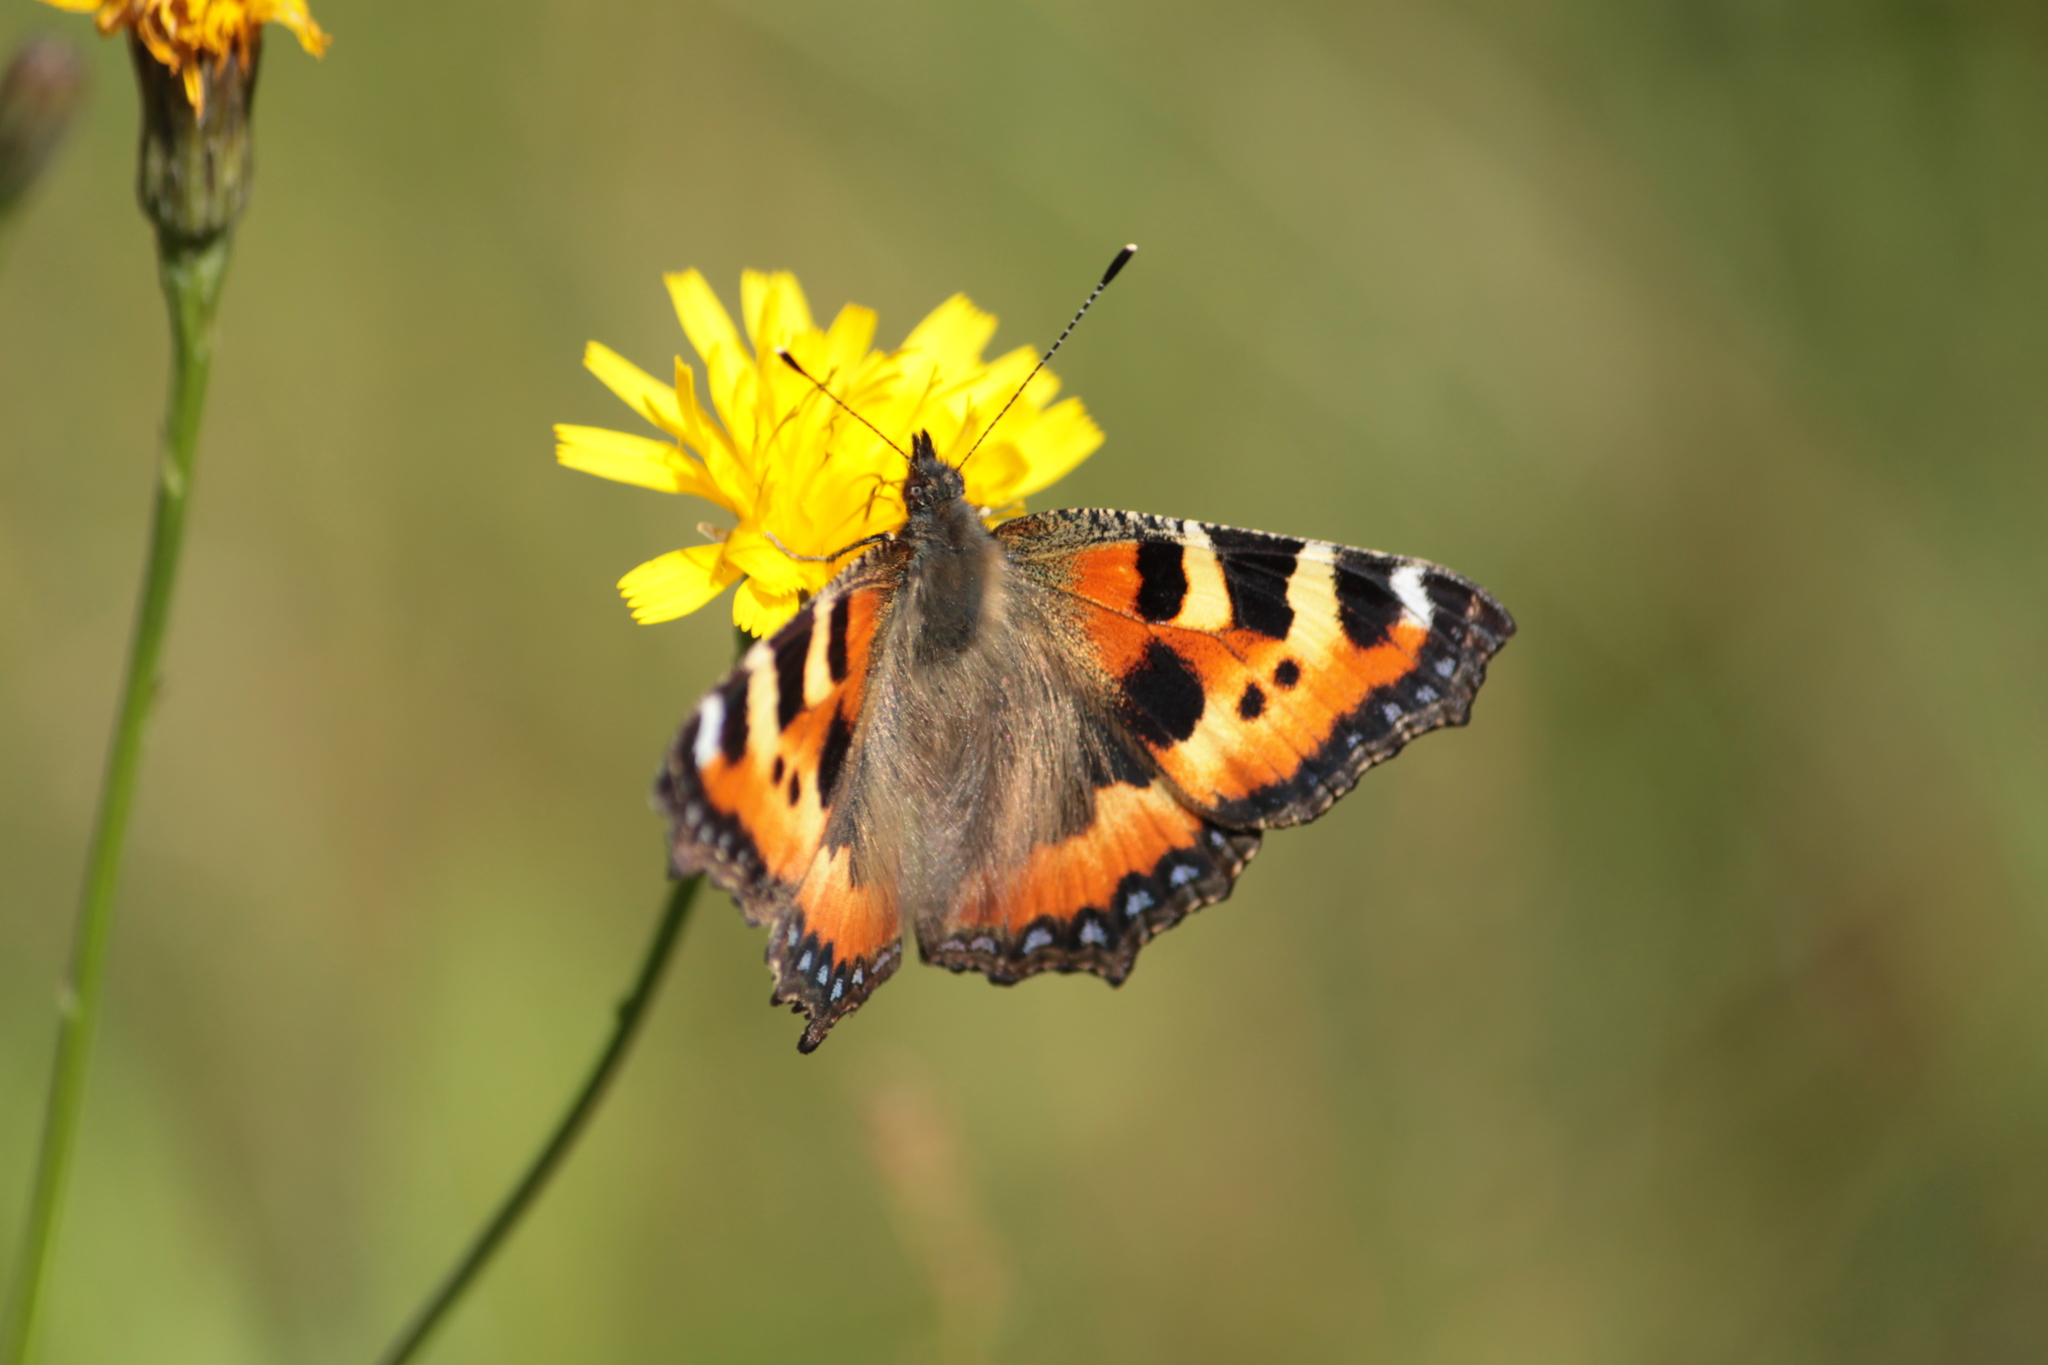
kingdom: Animalia
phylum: Arthropoda
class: Insecta
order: Lepidoptera
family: Nymphalidae
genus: Aglais
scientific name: Aglais urticae
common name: Small tortoiseshell
